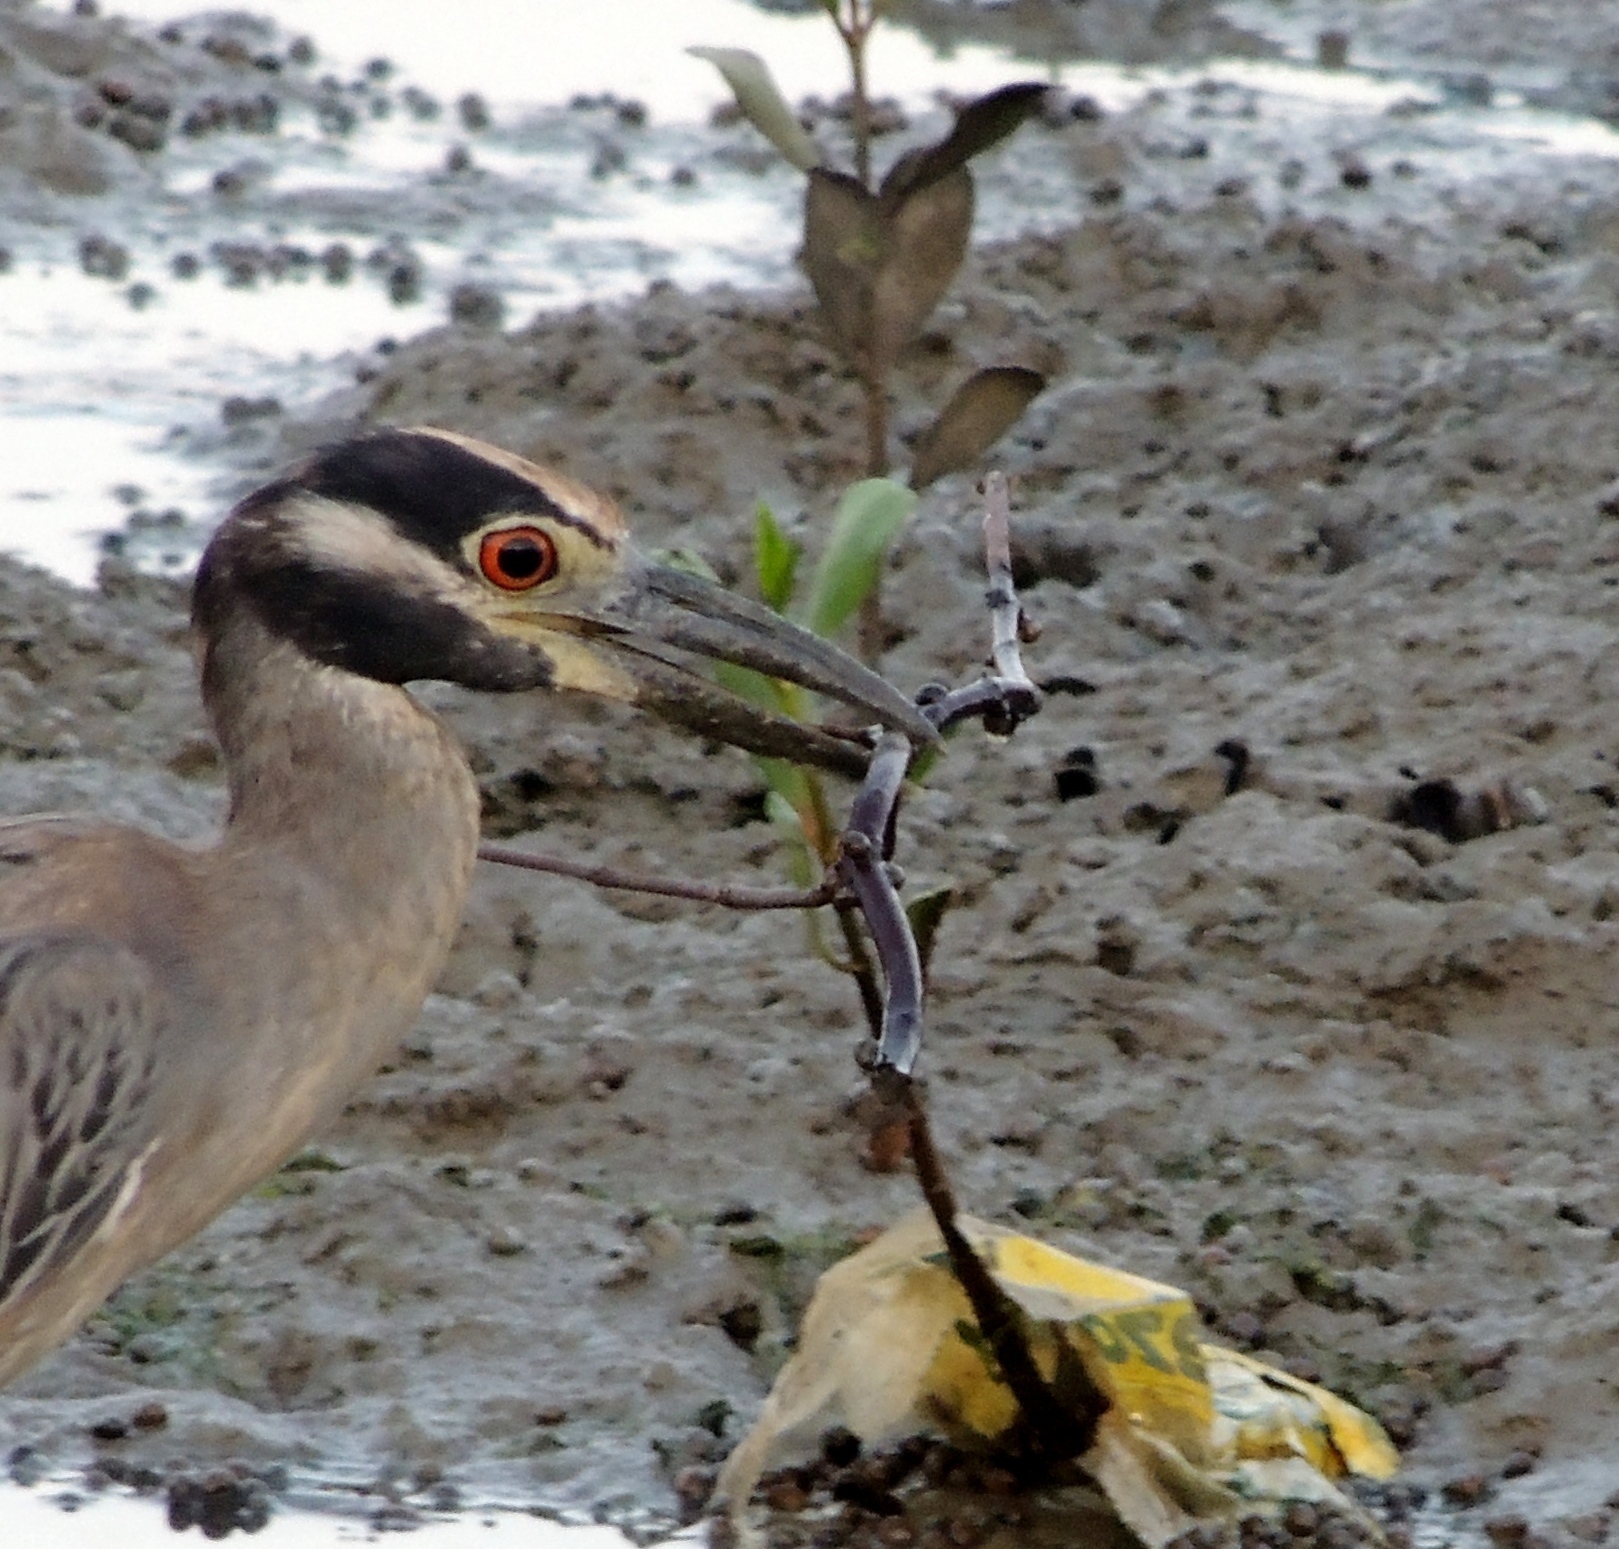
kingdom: Animalia
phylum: Chordata
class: Aves
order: Pelecaniformes
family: Ardeidae
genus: Nyctanassa
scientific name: Nyctanassa violacea
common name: Yellow-crowned night heron
